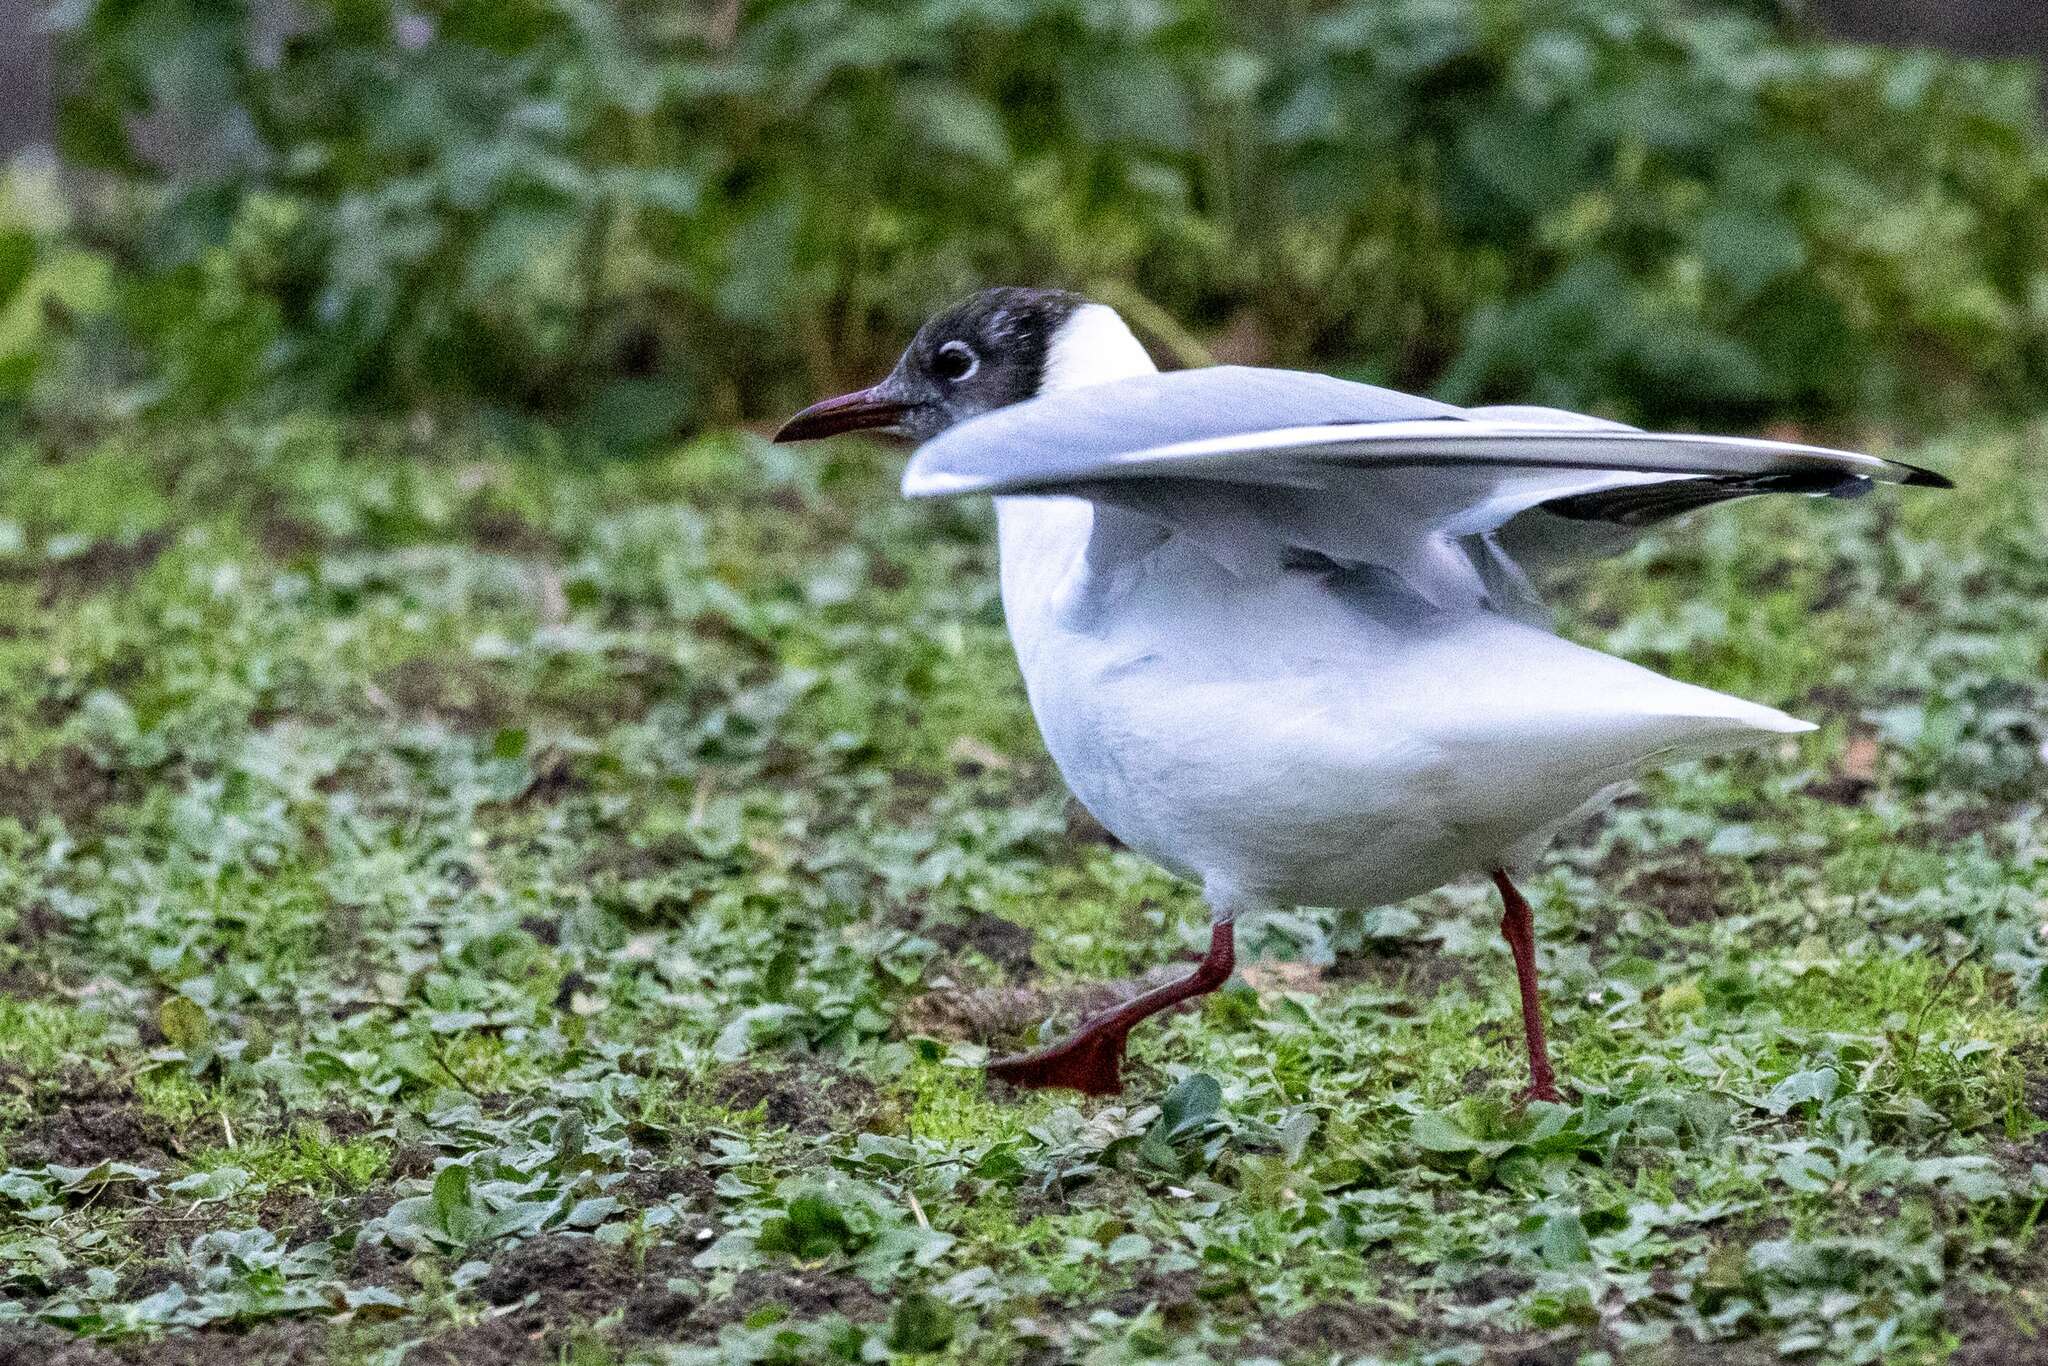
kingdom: Animalia
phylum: Chordata
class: Aves
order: Charadriiformes
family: Laridae
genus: Chroicocephalus
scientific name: Chroicocephalus ridibundus
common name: Black-headed gull
